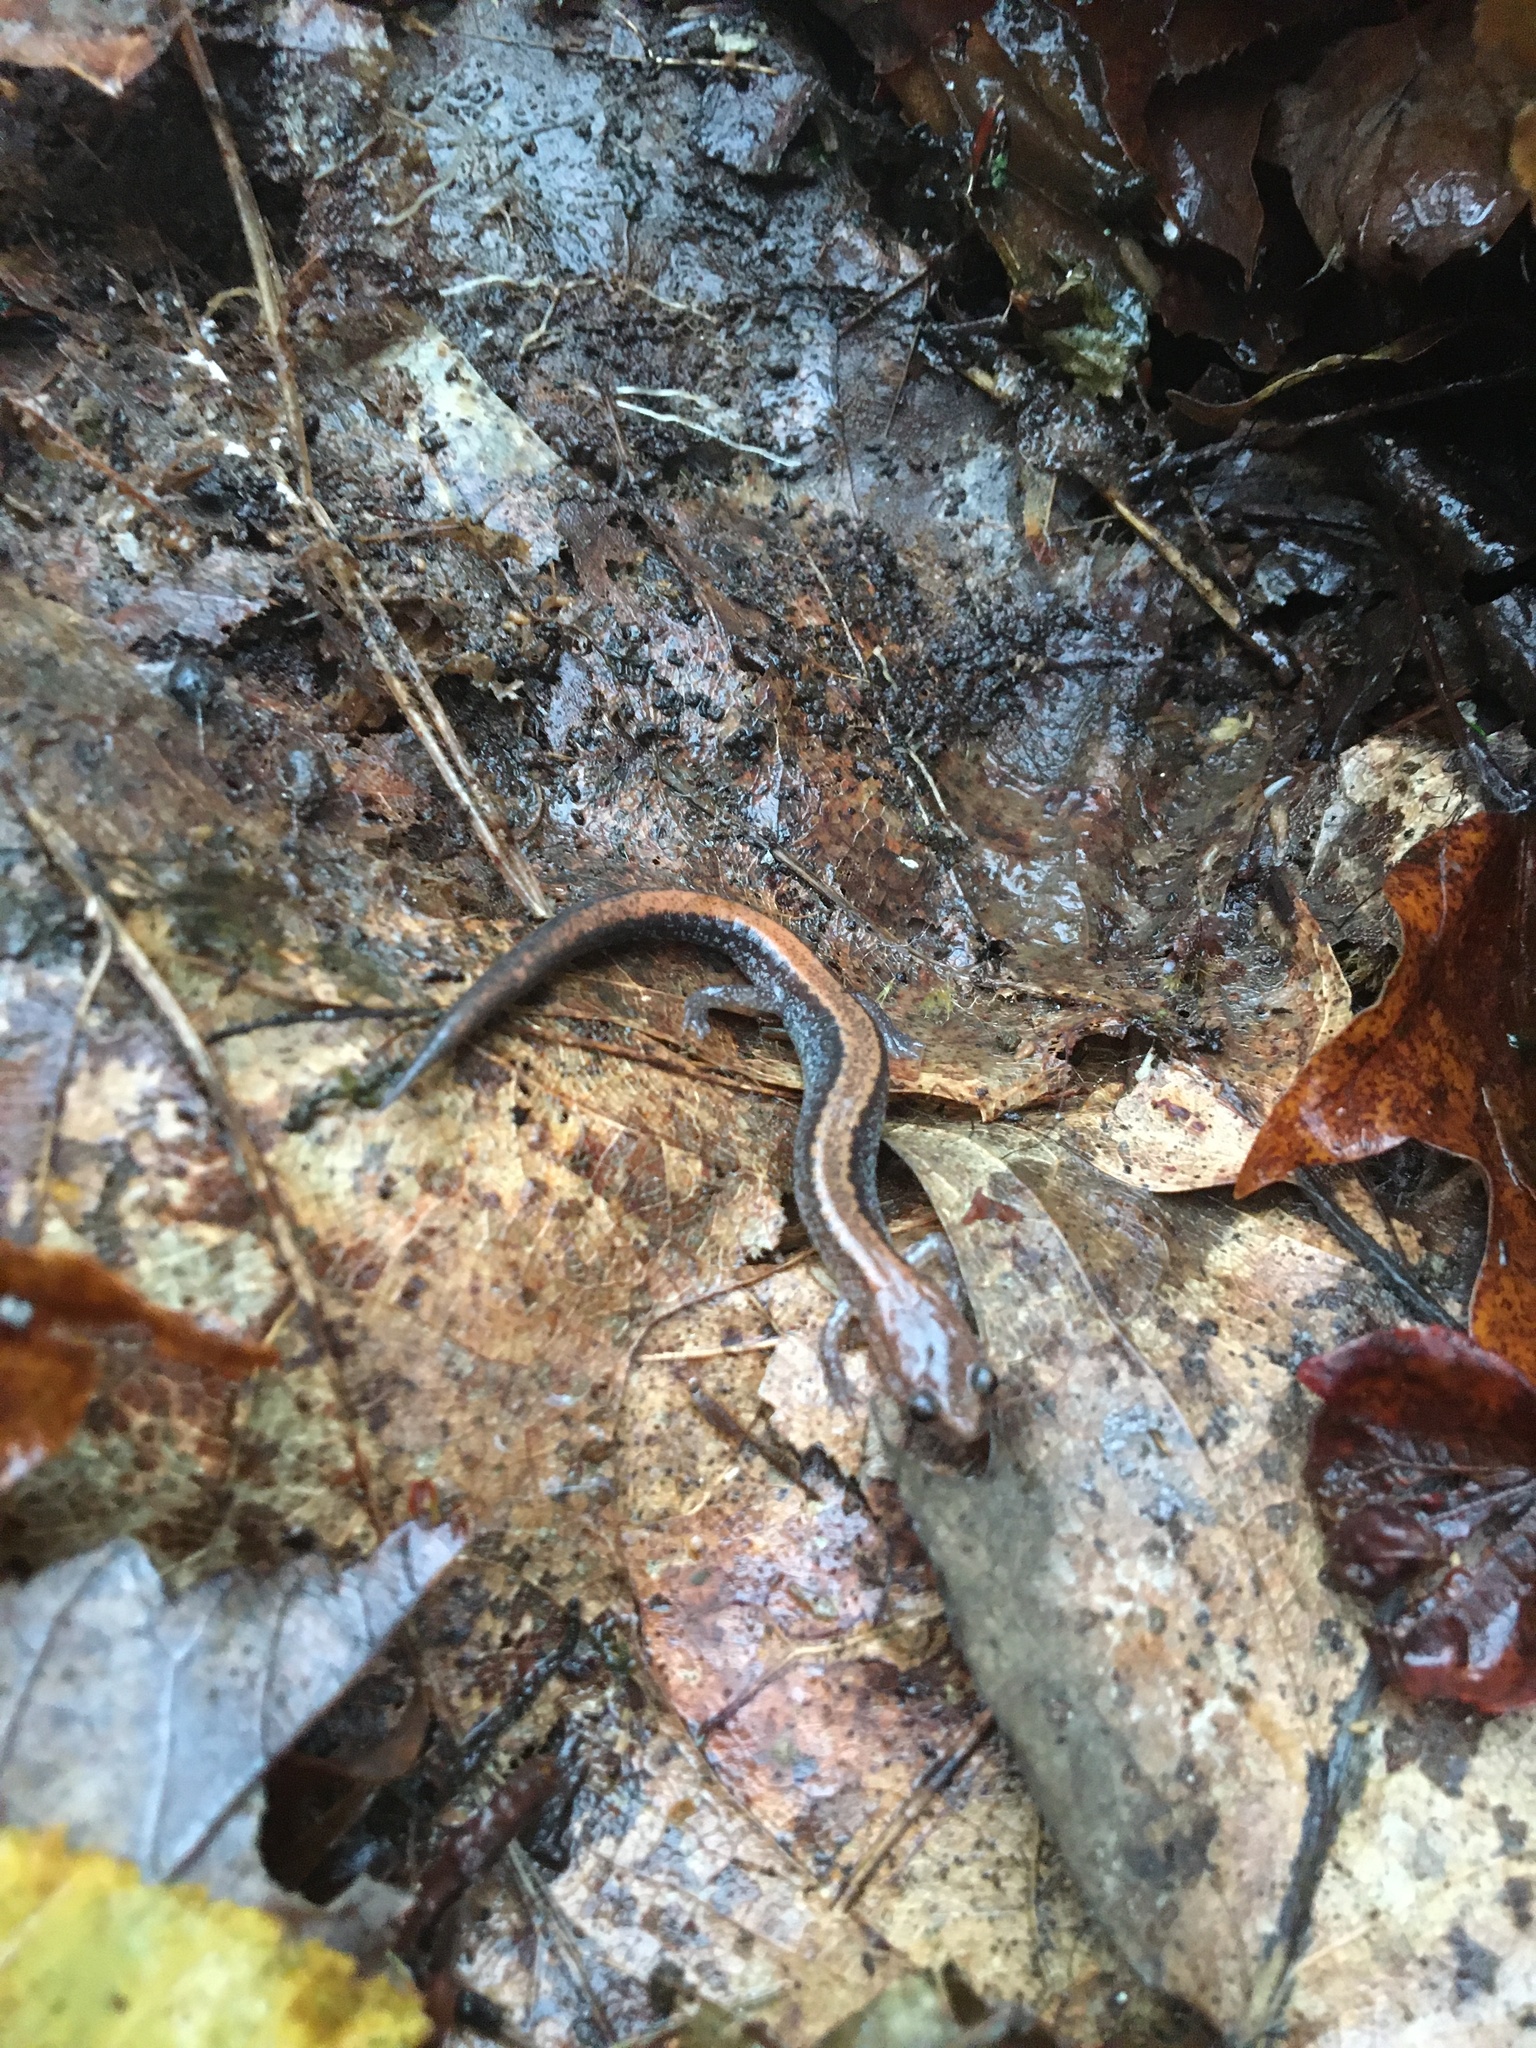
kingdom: Animalia
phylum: Chordata
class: Amphibia
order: Caudata
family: Plethodontidae
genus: Plethodon
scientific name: Plethodon cinereus
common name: Redback salamander
